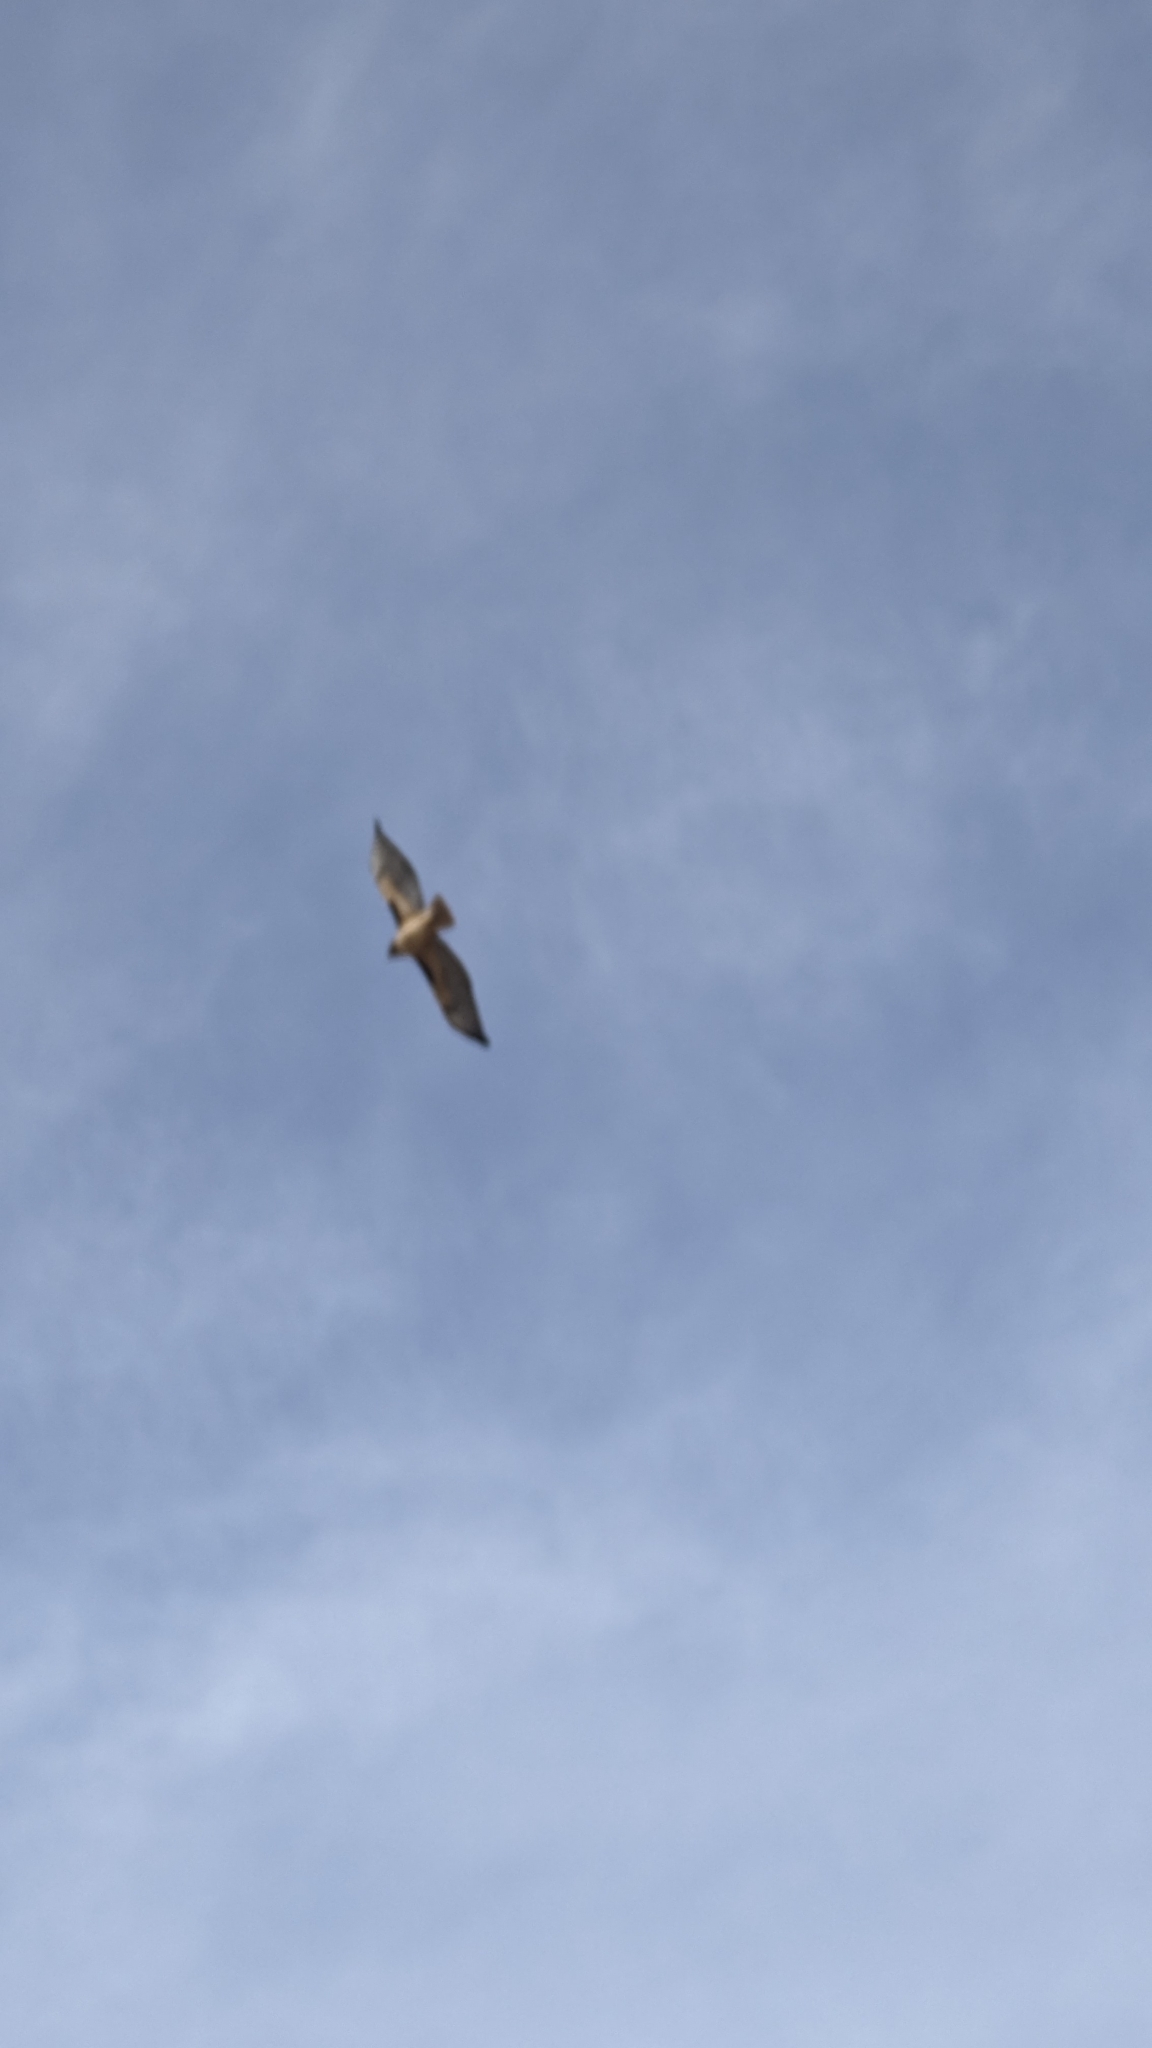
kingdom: Animalia
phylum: Chordata
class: Aves
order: Accipitriformes
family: Accipitridae
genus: Buteo
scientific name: Buteo jamaicensis
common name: Red-tailed hawk
